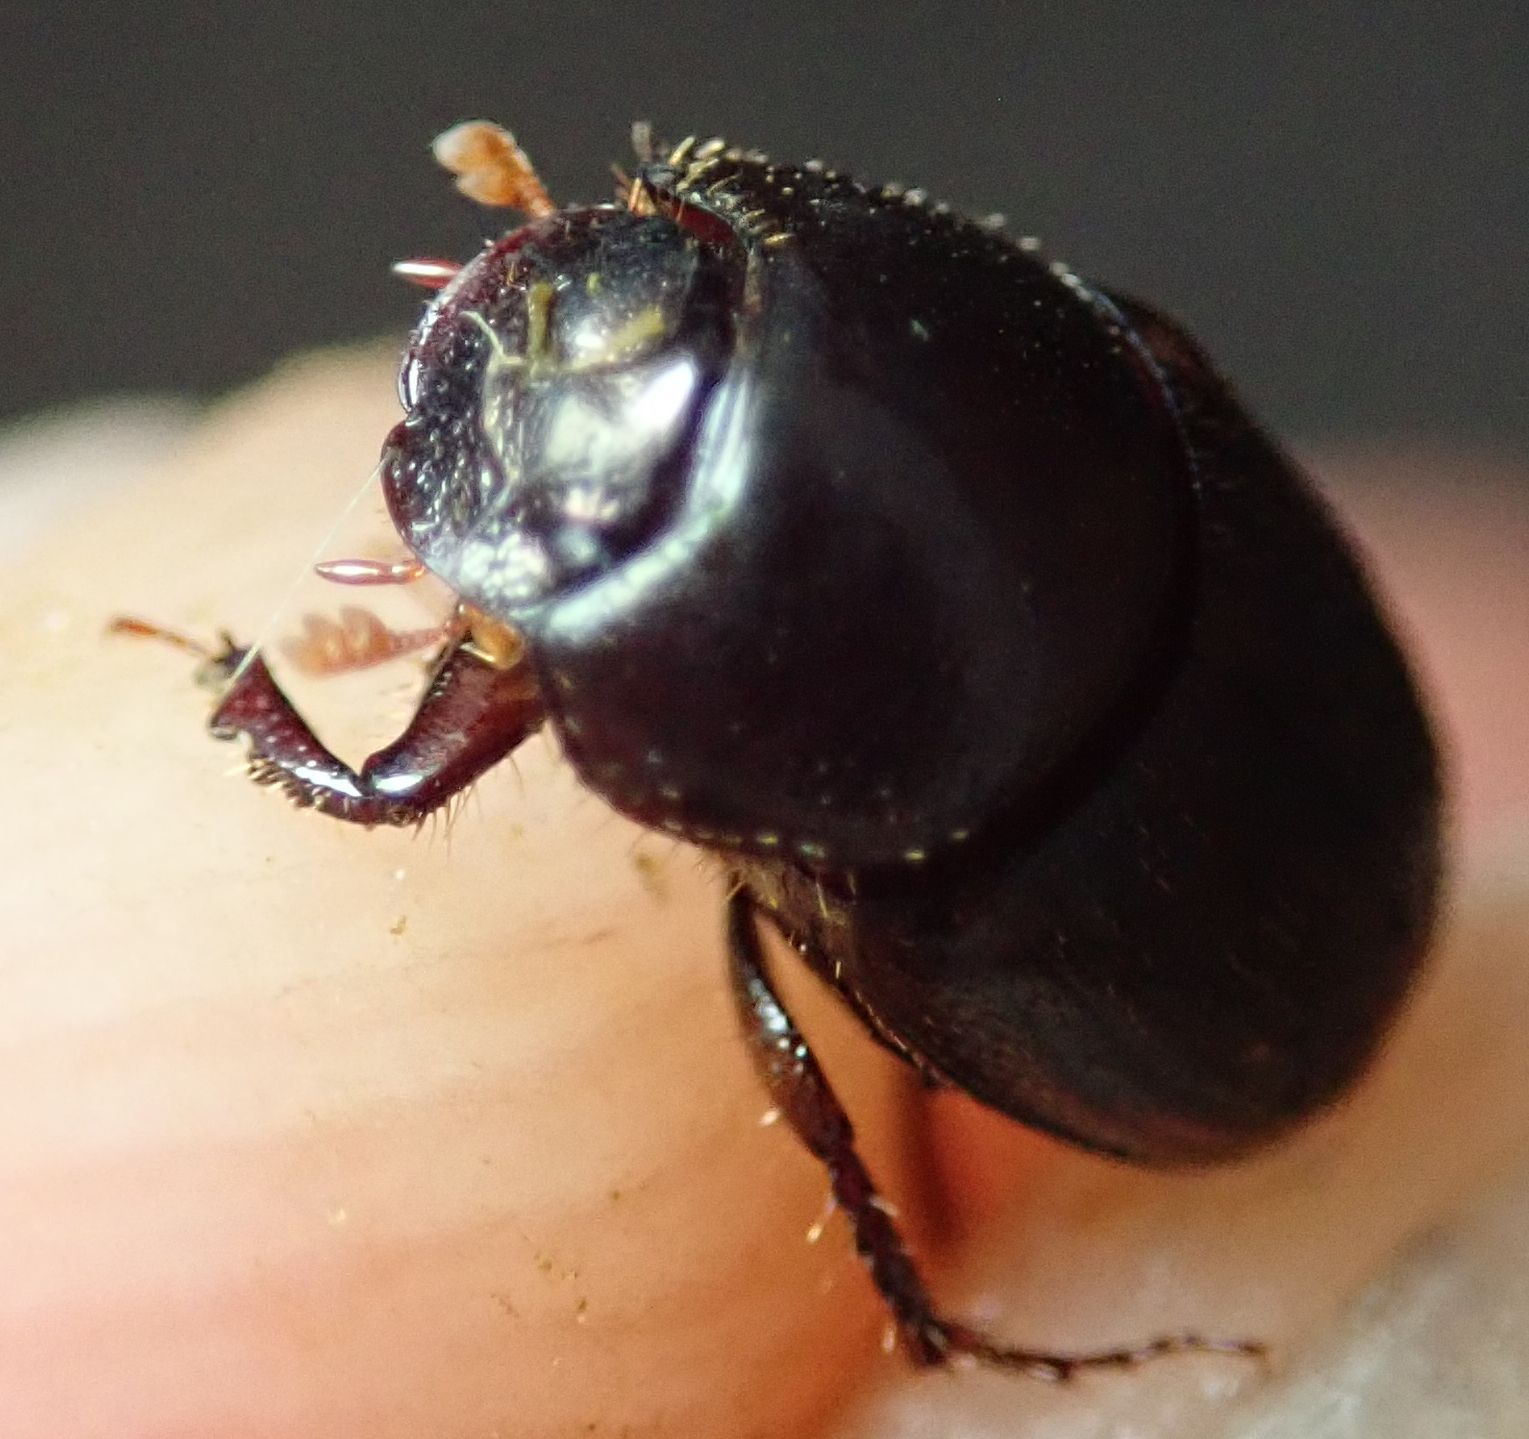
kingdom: Animalia
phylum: Arthropoda
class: Insecta
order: Coleoptera
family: Scarabaeidae
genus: Onthophagus
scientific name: Onthophagus vinctus
